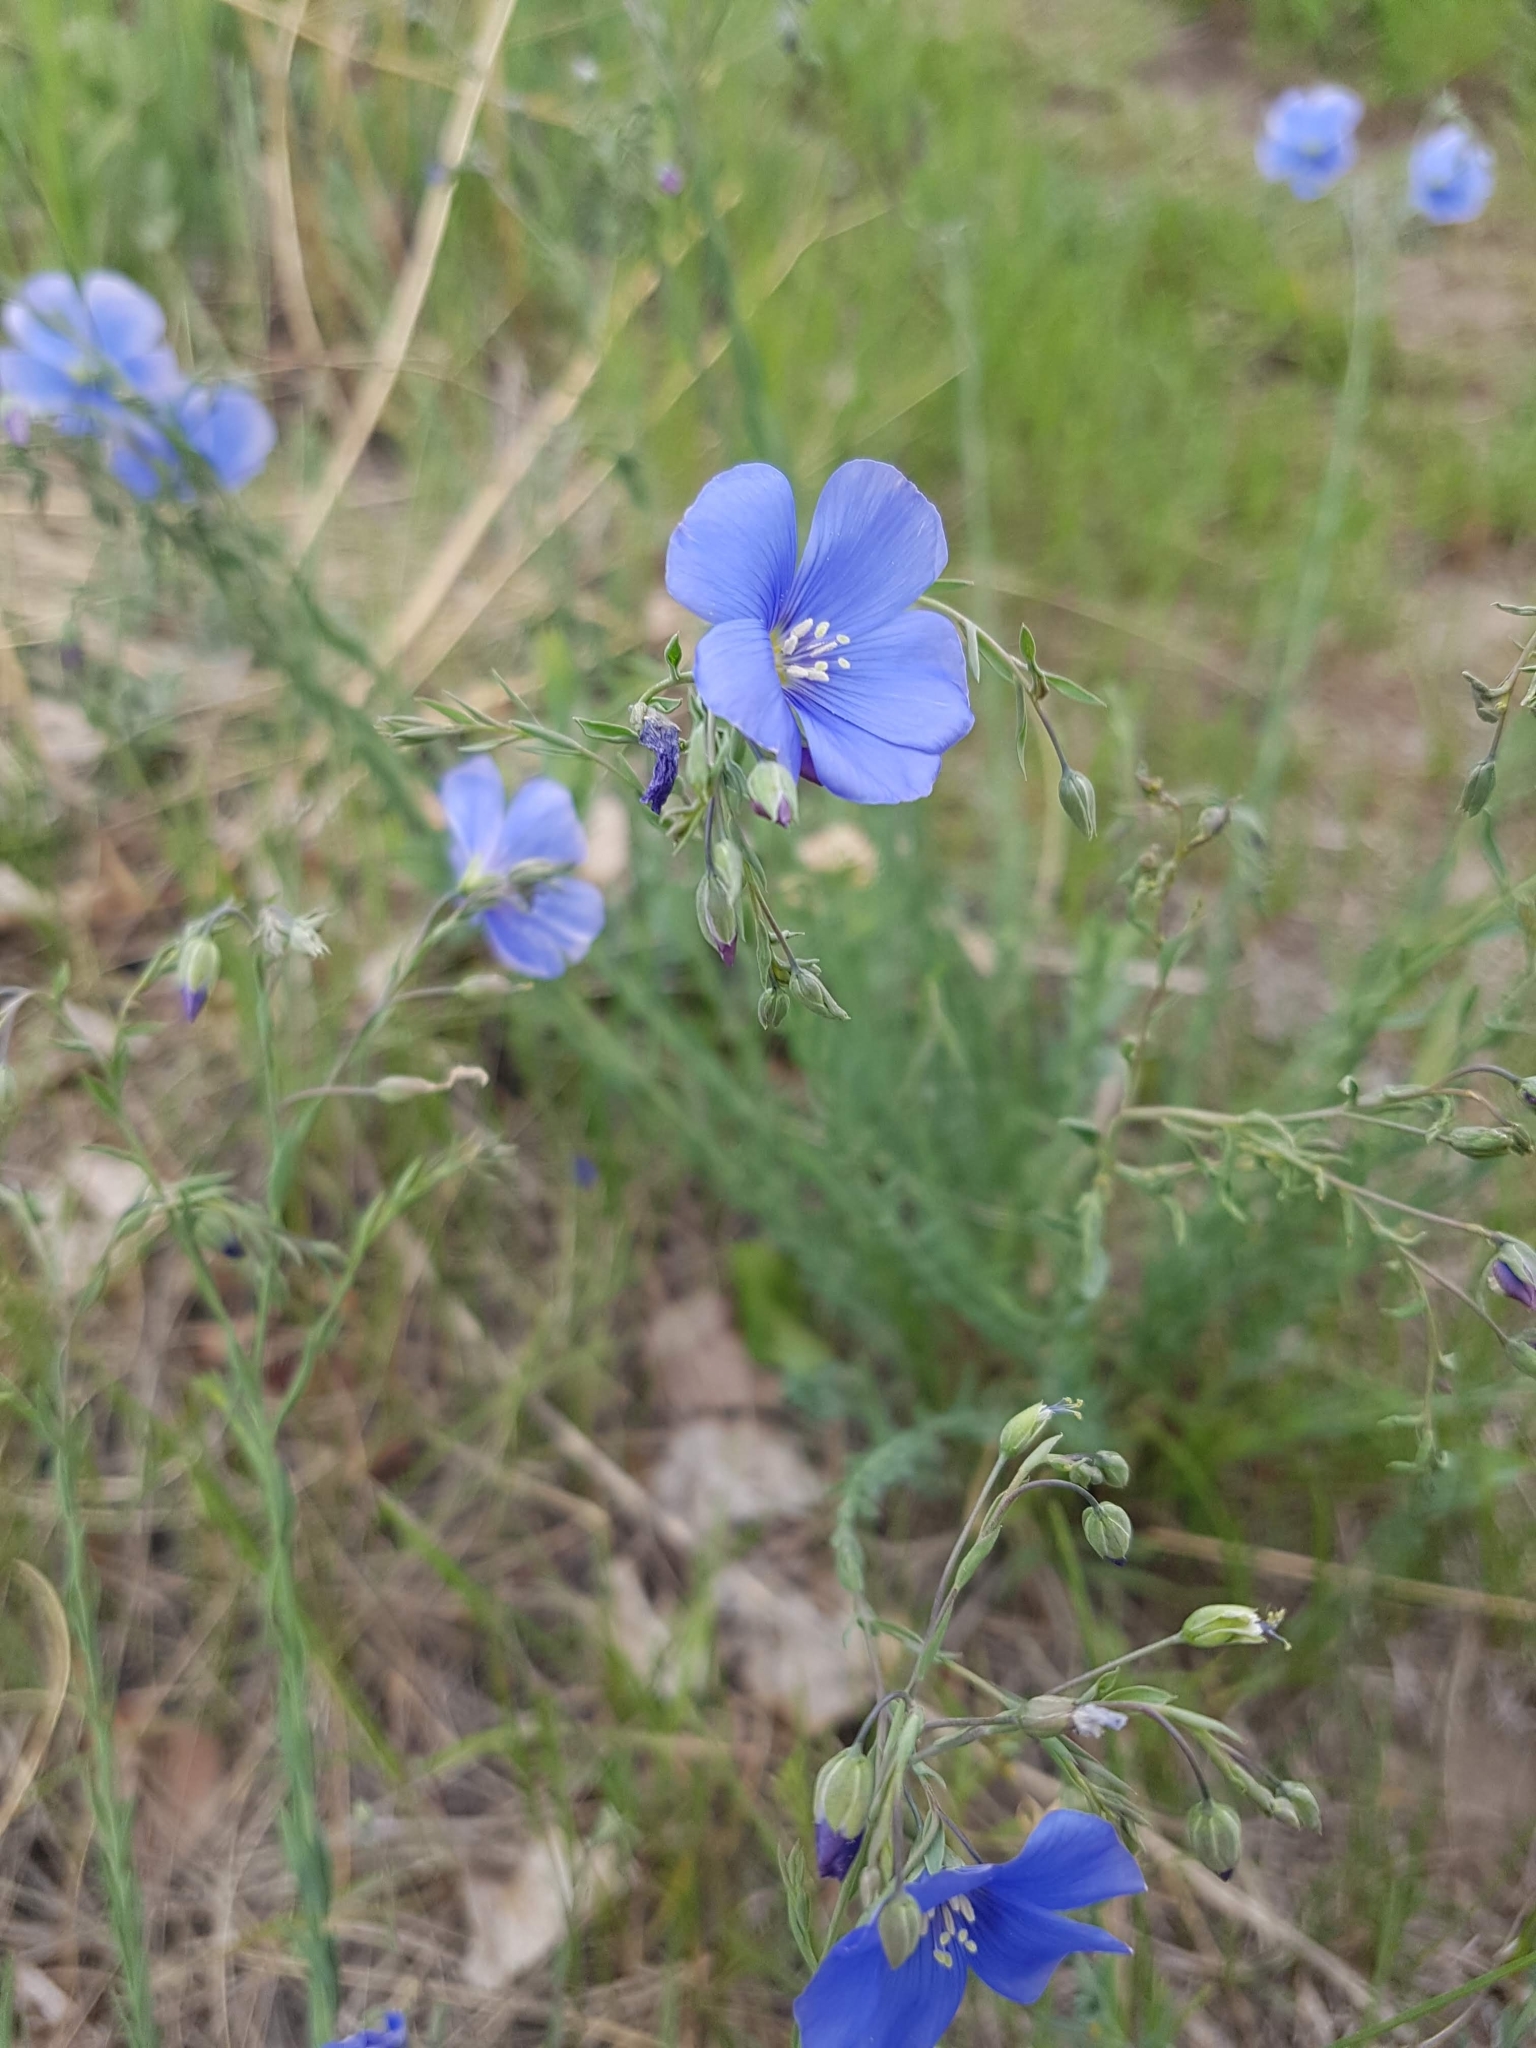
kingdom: Plantae
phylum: Tracheophyta
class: Magnoliopsida
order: Malpighiales
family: Linaceae
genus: Linum
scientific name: Linum lewisii
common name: Prairie flax
